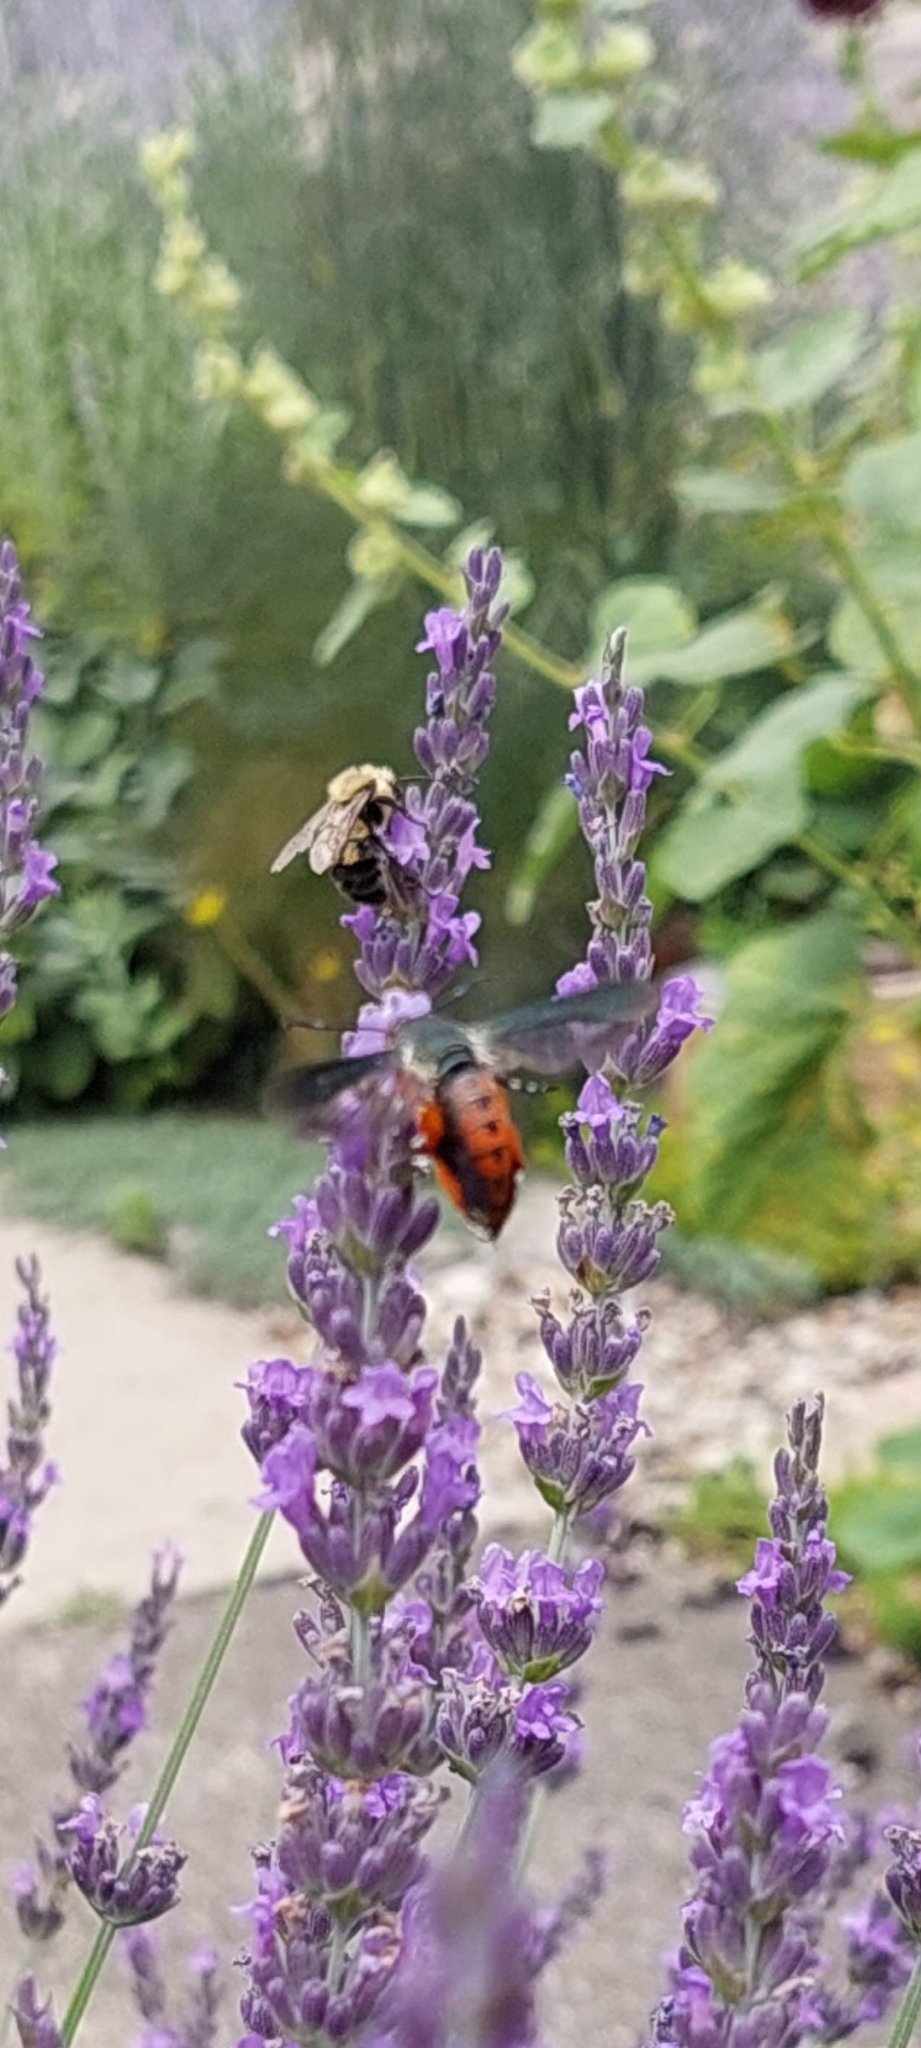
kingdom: Animalia
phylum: Arthropoda
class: Insecta
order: Lepidoptera
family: Sesiidae
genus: Eichlinia
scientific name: Eichlinia cucurbitae
